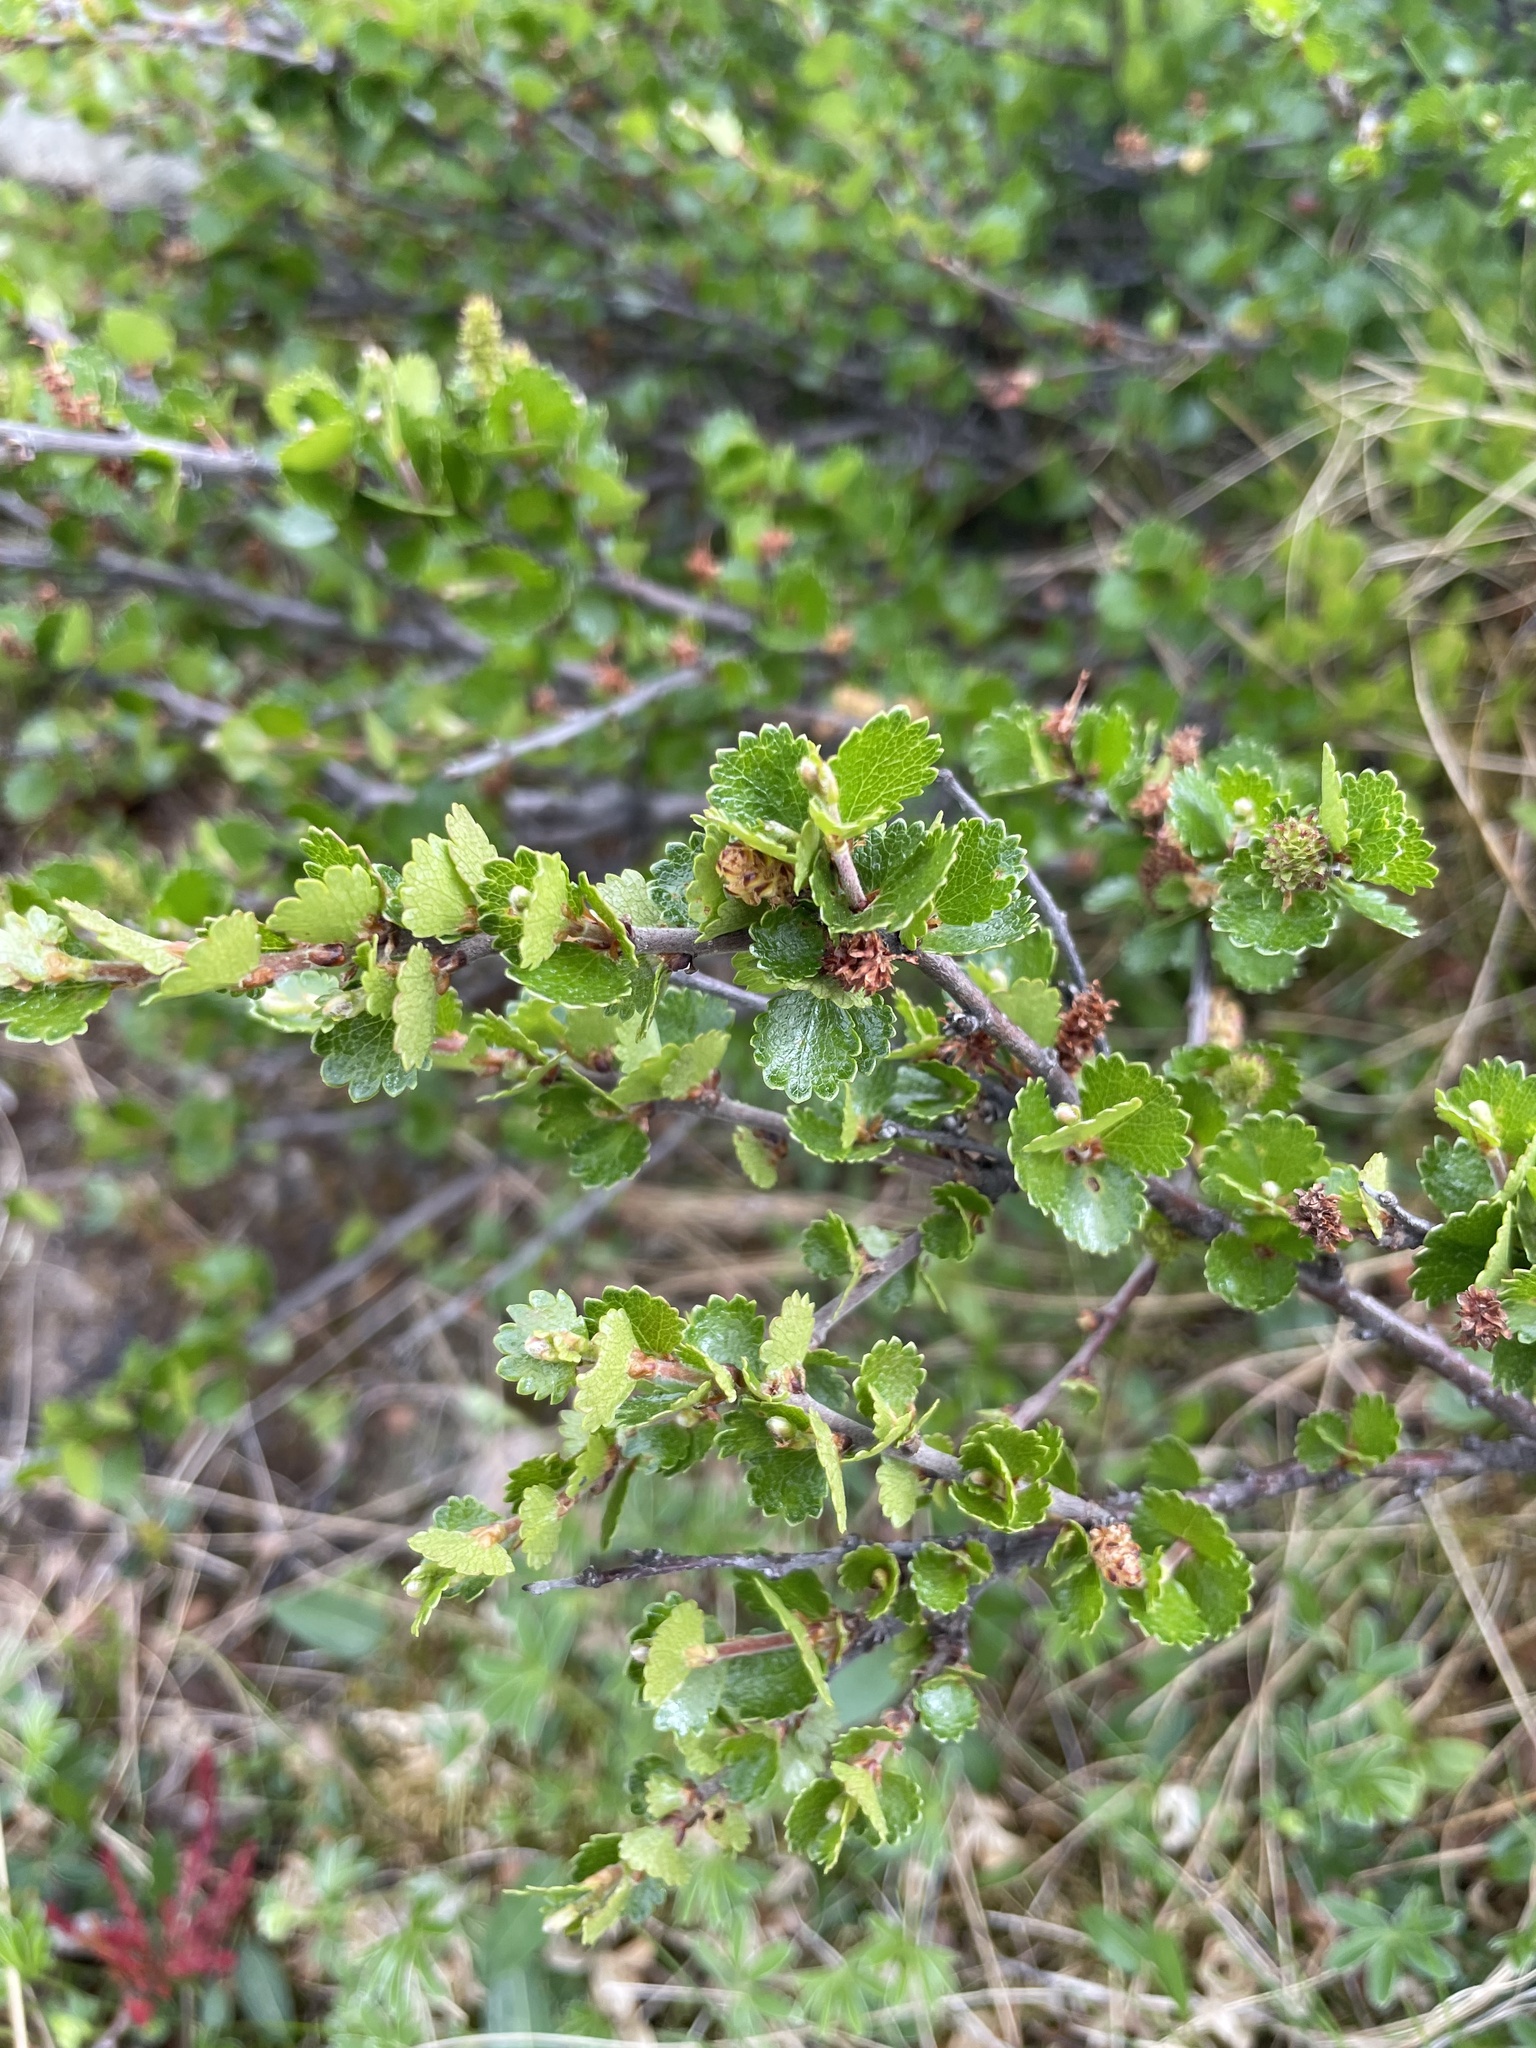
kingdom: Plantae
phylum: Tracheophyta
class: Magnoliopsida
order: Fagales
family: Betulaceae
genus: Betula
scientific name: Betula nana
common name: Arctic dwarf birch
